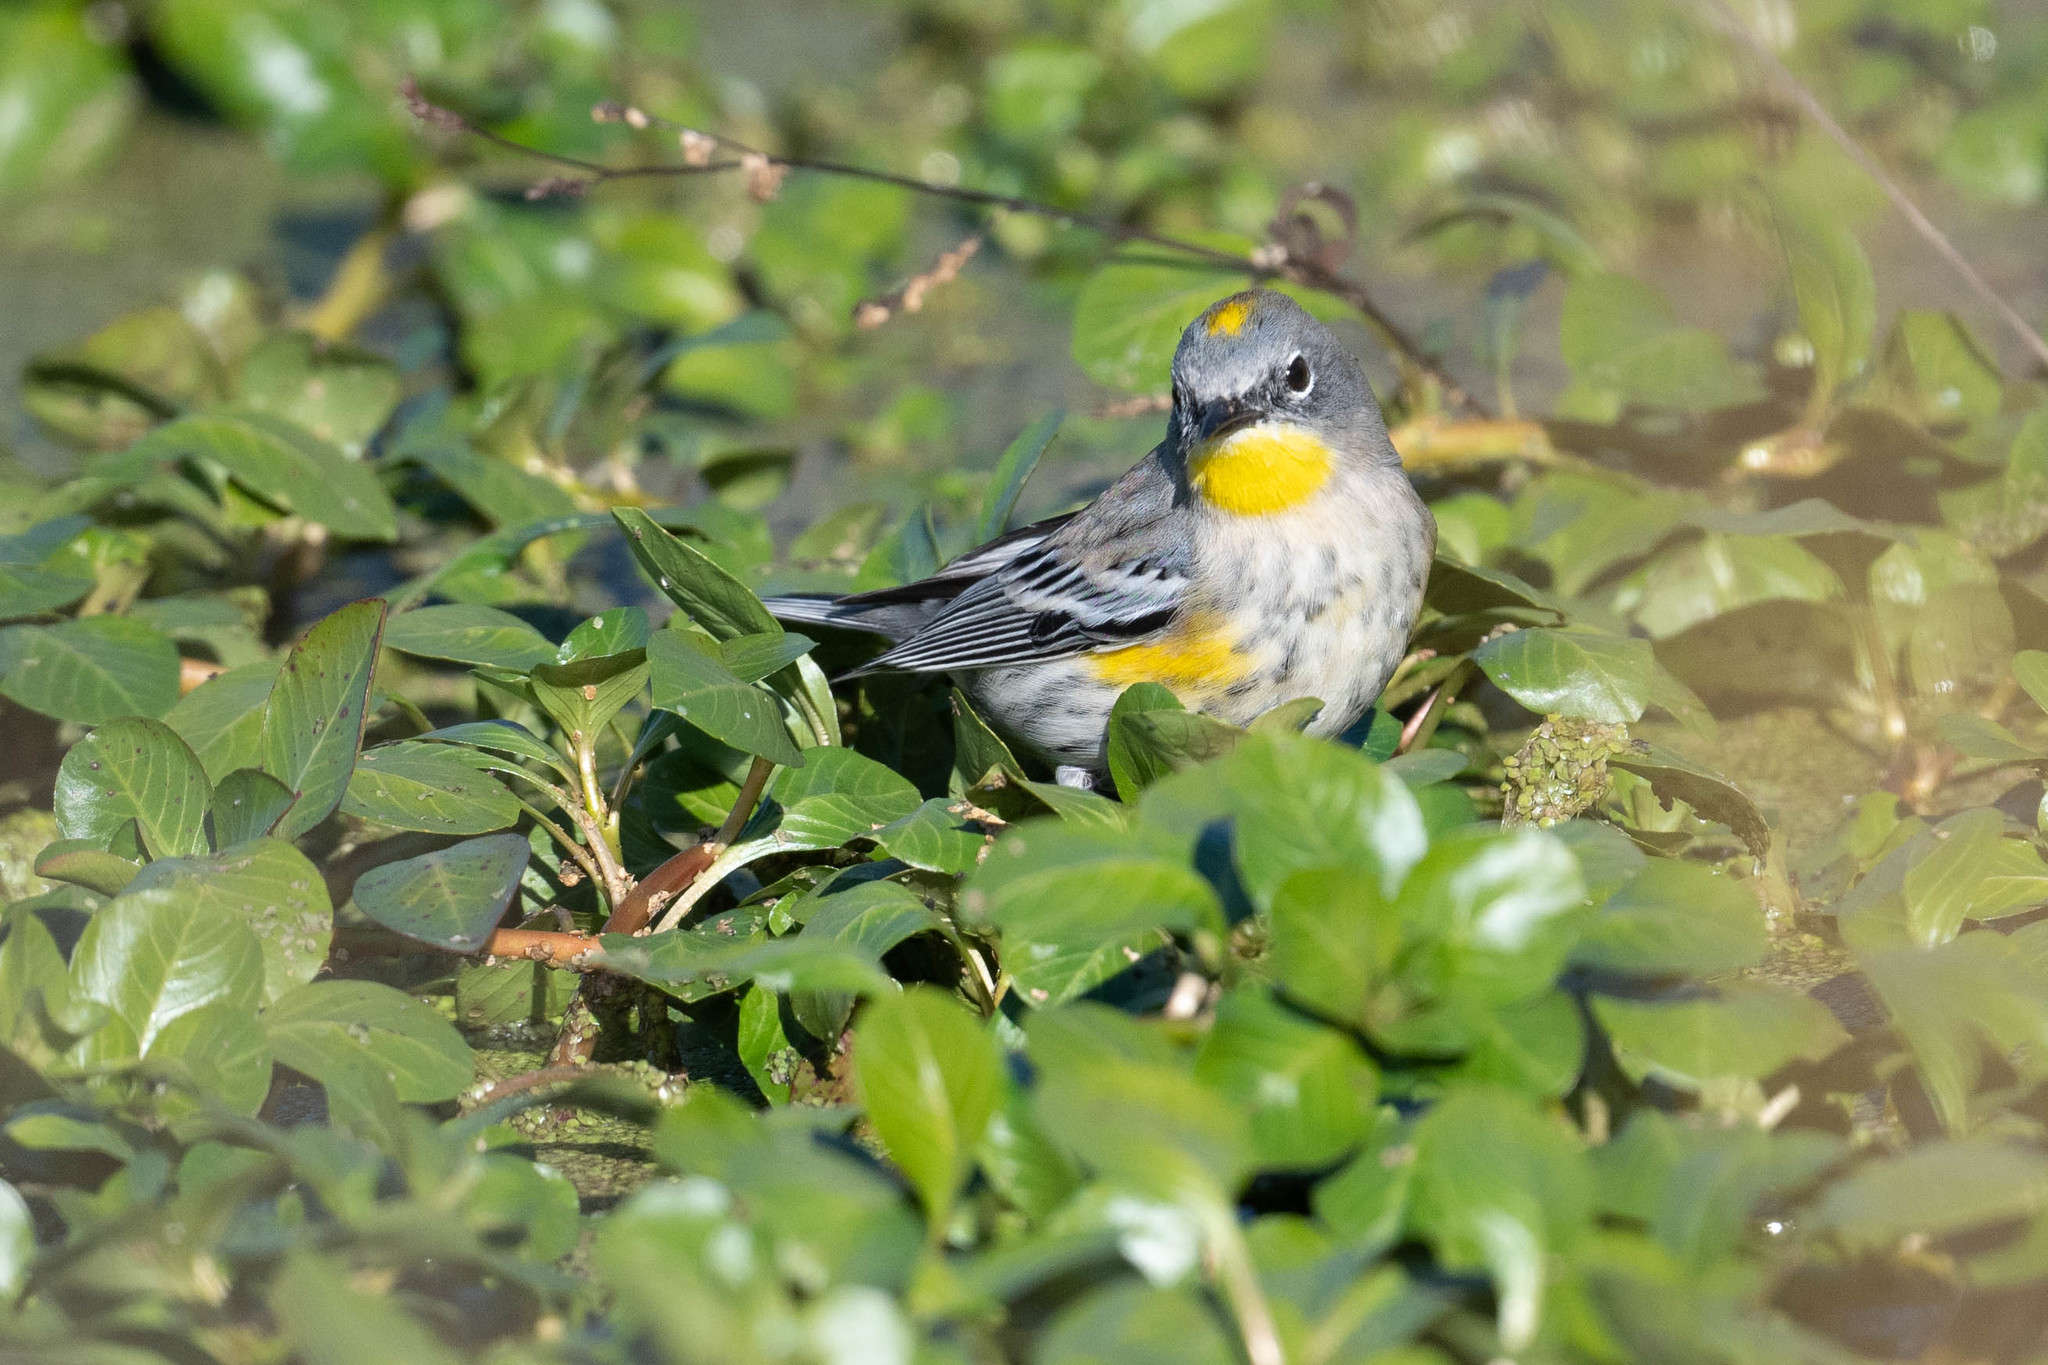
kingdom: Animalia
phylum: Chordata
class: Aves
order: Passeriformes
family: Parulidae
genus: Setophaga
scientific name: Setophaga coronata
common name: Myrtle warbler
